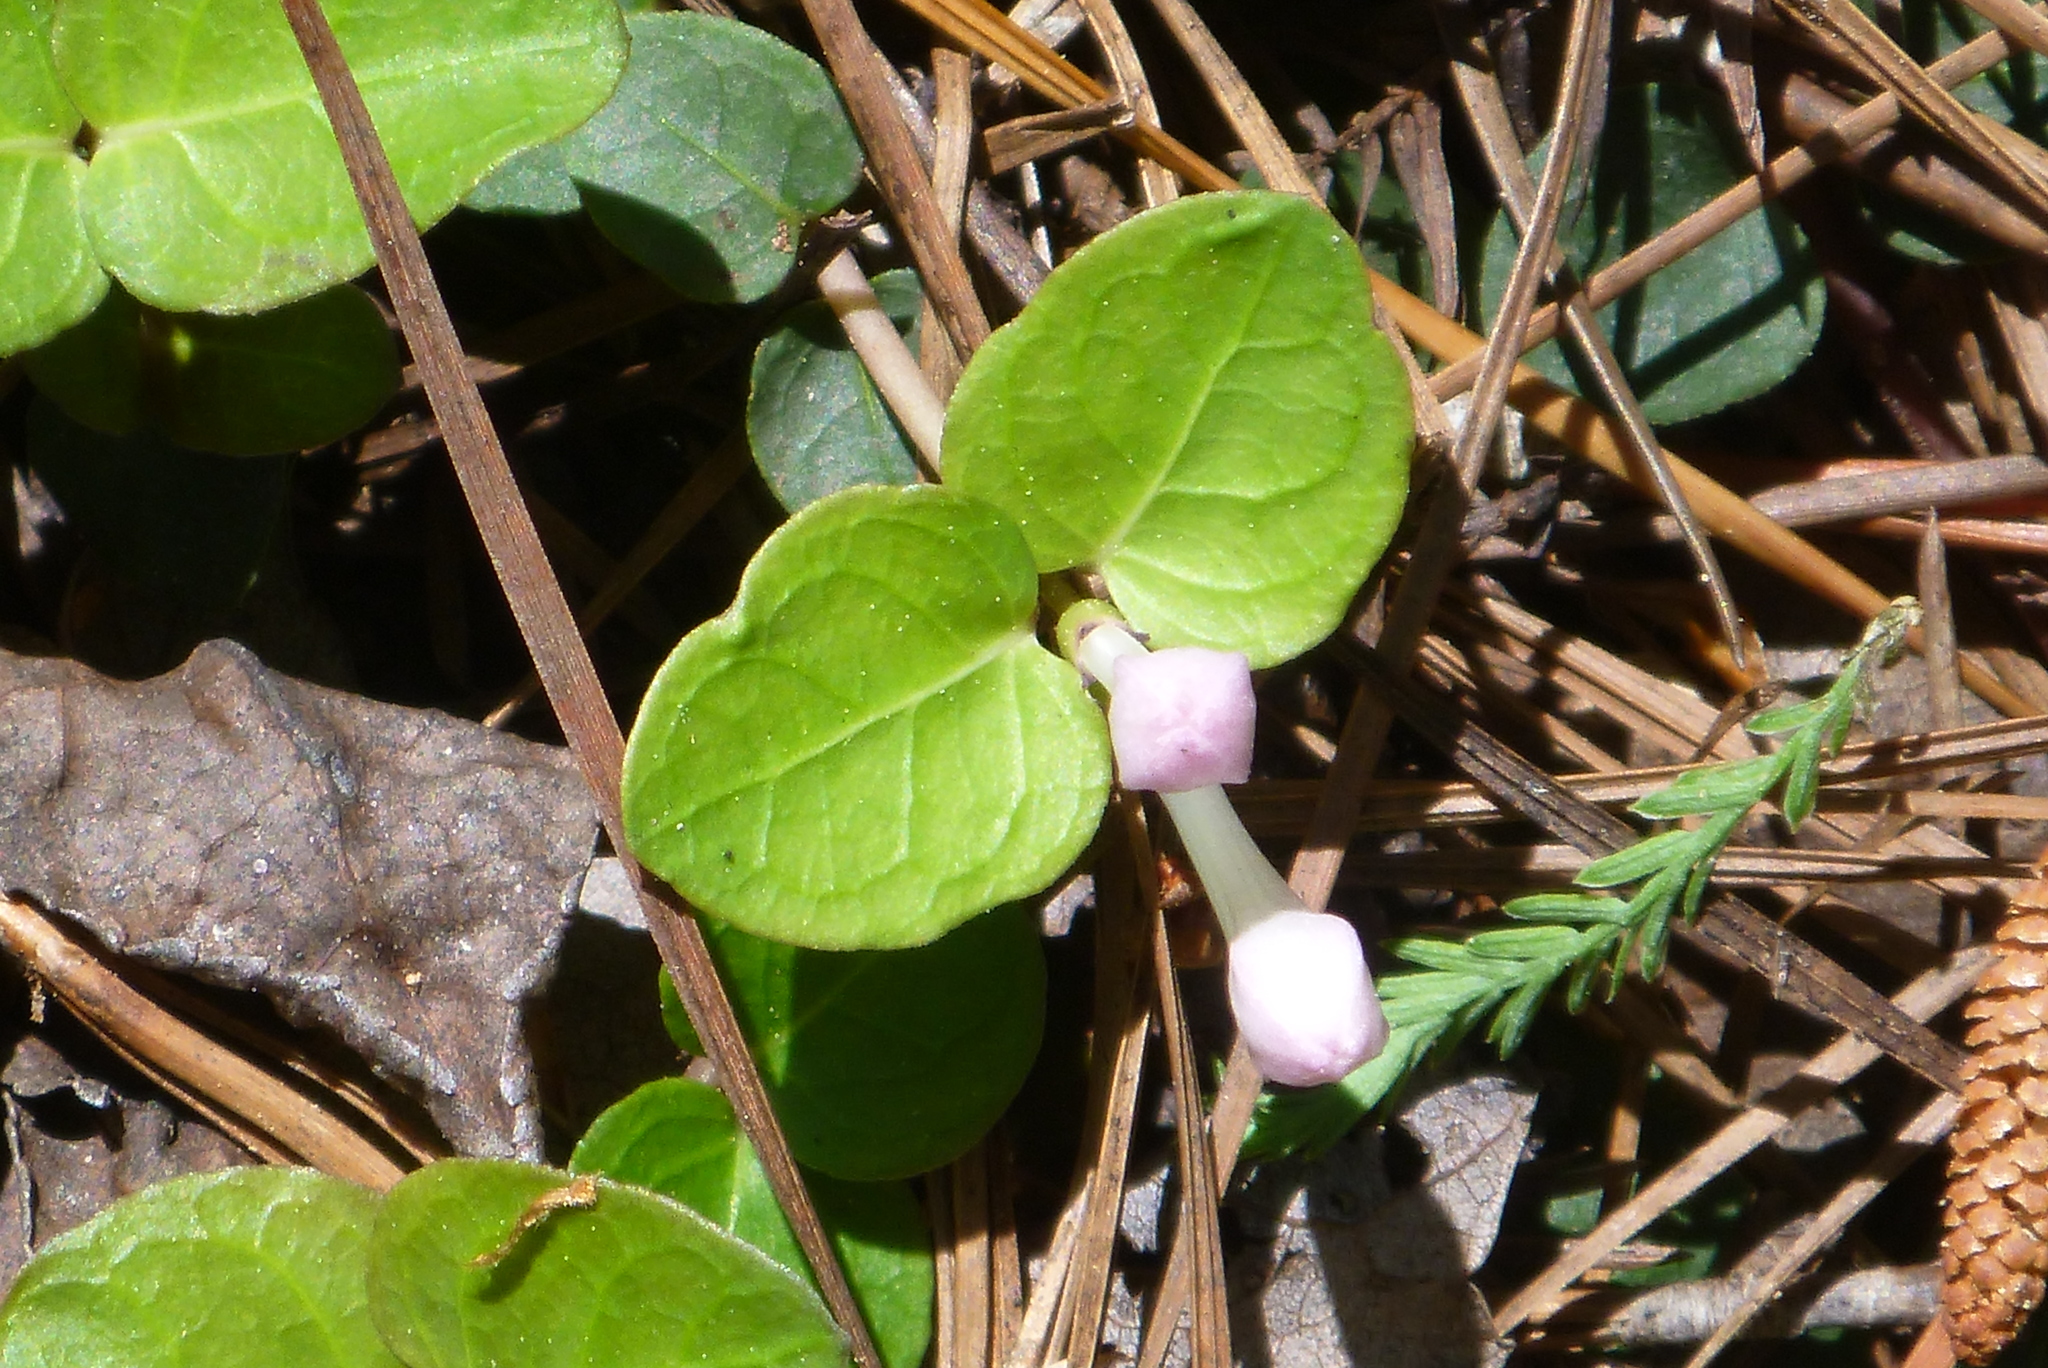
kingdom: Plantae
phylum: Tracheophyta
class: Magnoliopsida
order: Gentianales
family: Rubiaceae
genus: Mitchella
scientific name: Mitchella repens
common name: Partridge-berry
